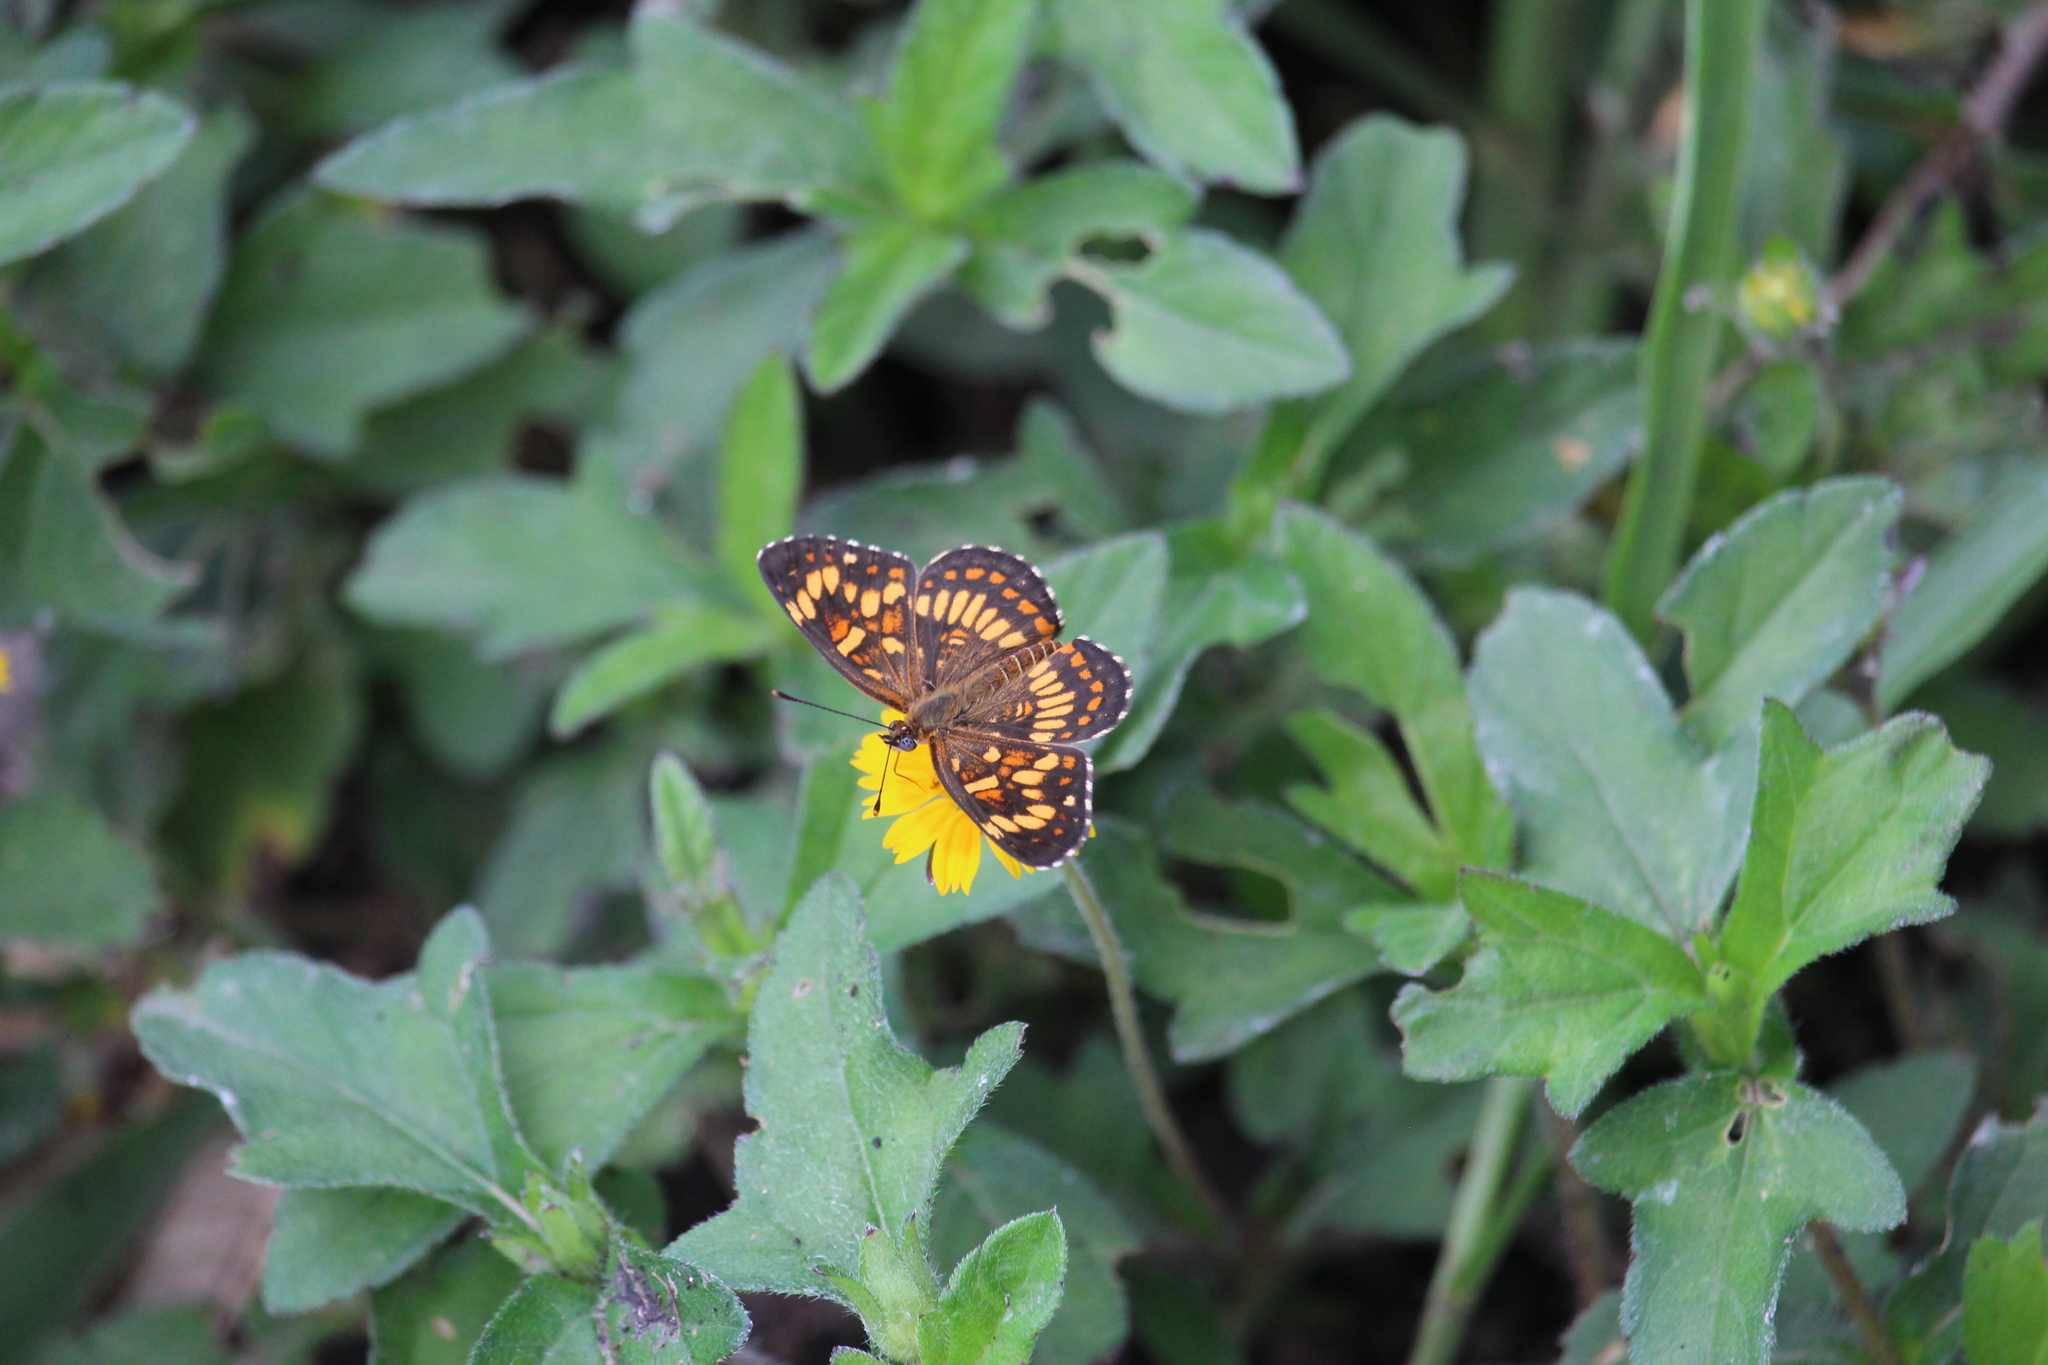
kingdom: Animalia
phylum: Arthropoda
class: Insecta
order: Lepidoptera
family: Nymphalidae
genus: Thessalia
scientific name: Thessalia theona
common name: Nymphalid moth
